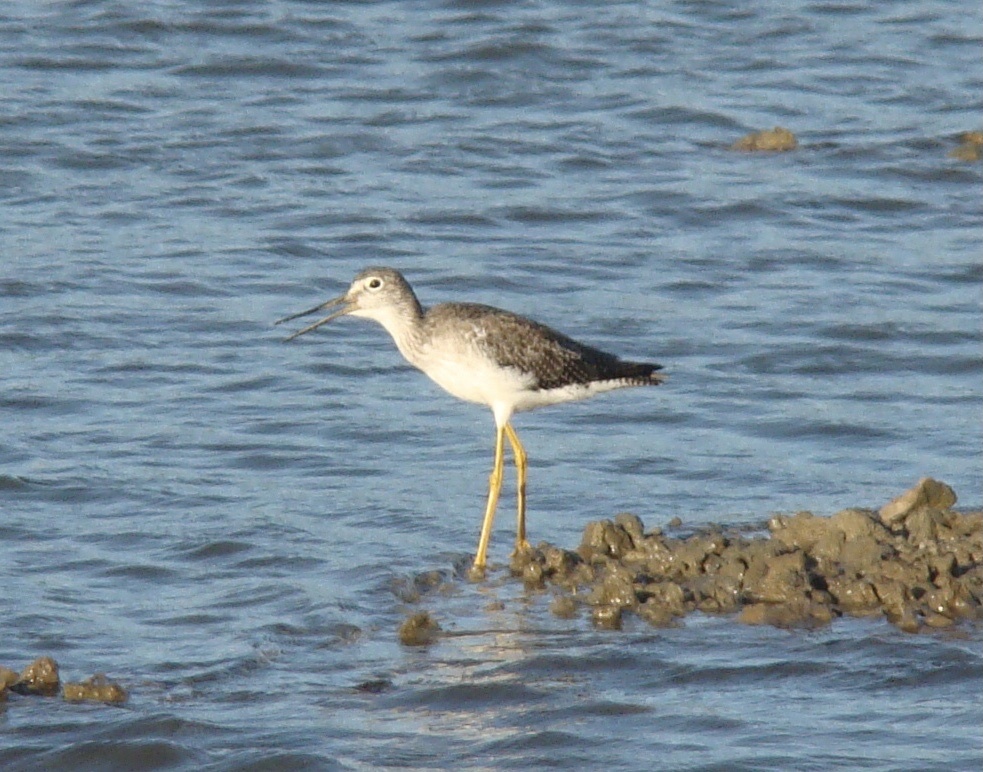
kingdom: Animalia
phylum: Chordata
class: Aves
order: Charadriiformes
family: Scolopacidae
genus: Tringa
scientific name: Tringa melanoleuca
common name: Greater yellowlegs
